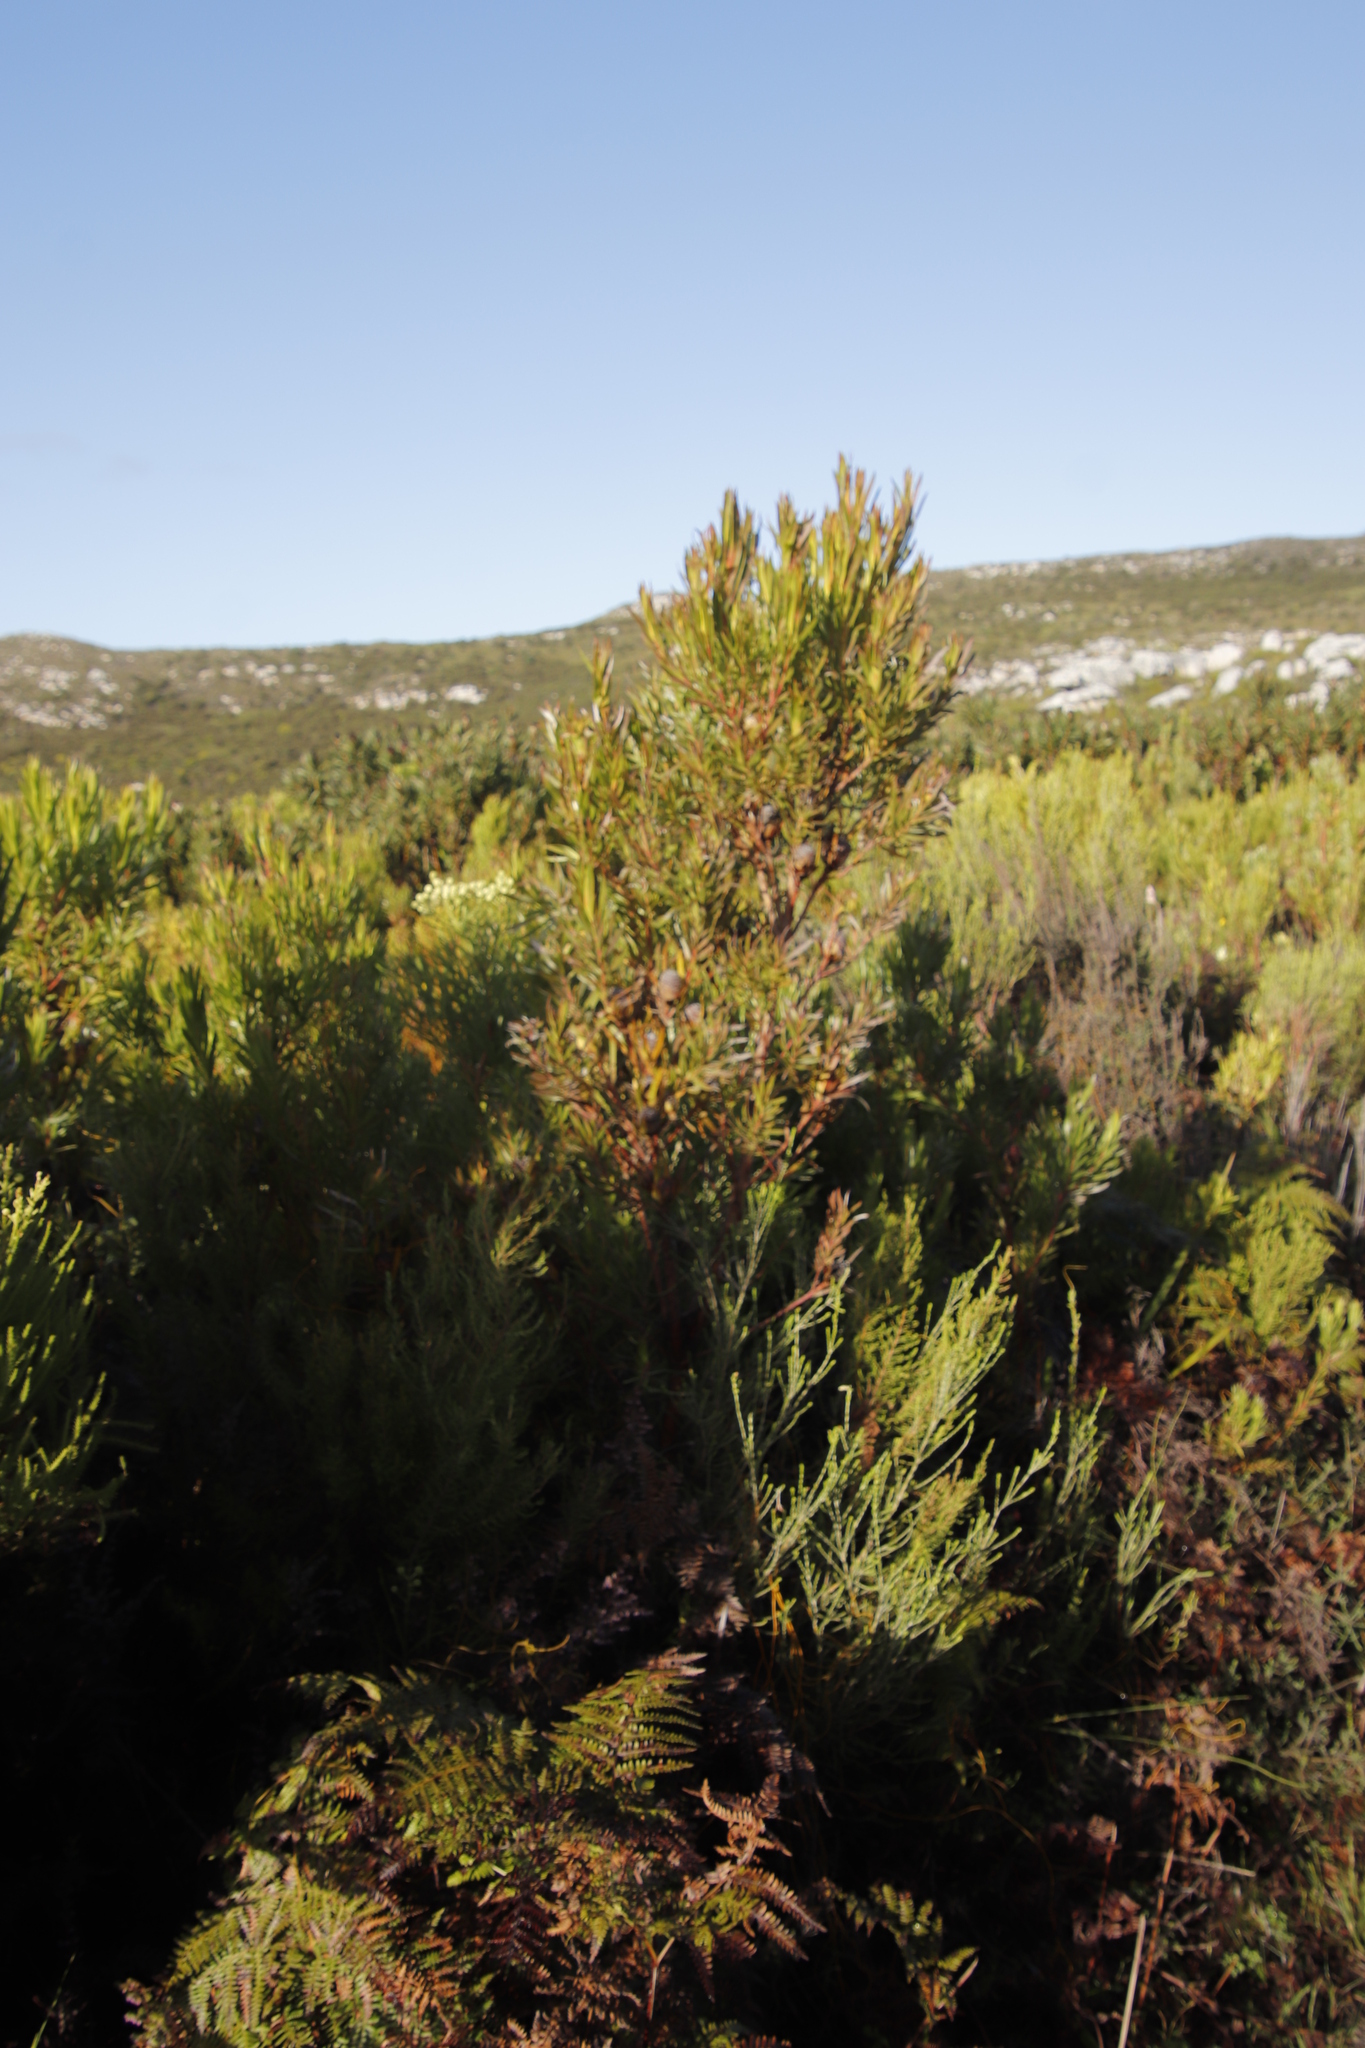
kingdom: Plantae
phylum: Tracheophyta
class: Magnoliopsida
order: Proteales
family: Proteaceae
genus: Leucadendron
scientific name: Leucadendron xanthoconus
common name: Sickle-leaf conebush
